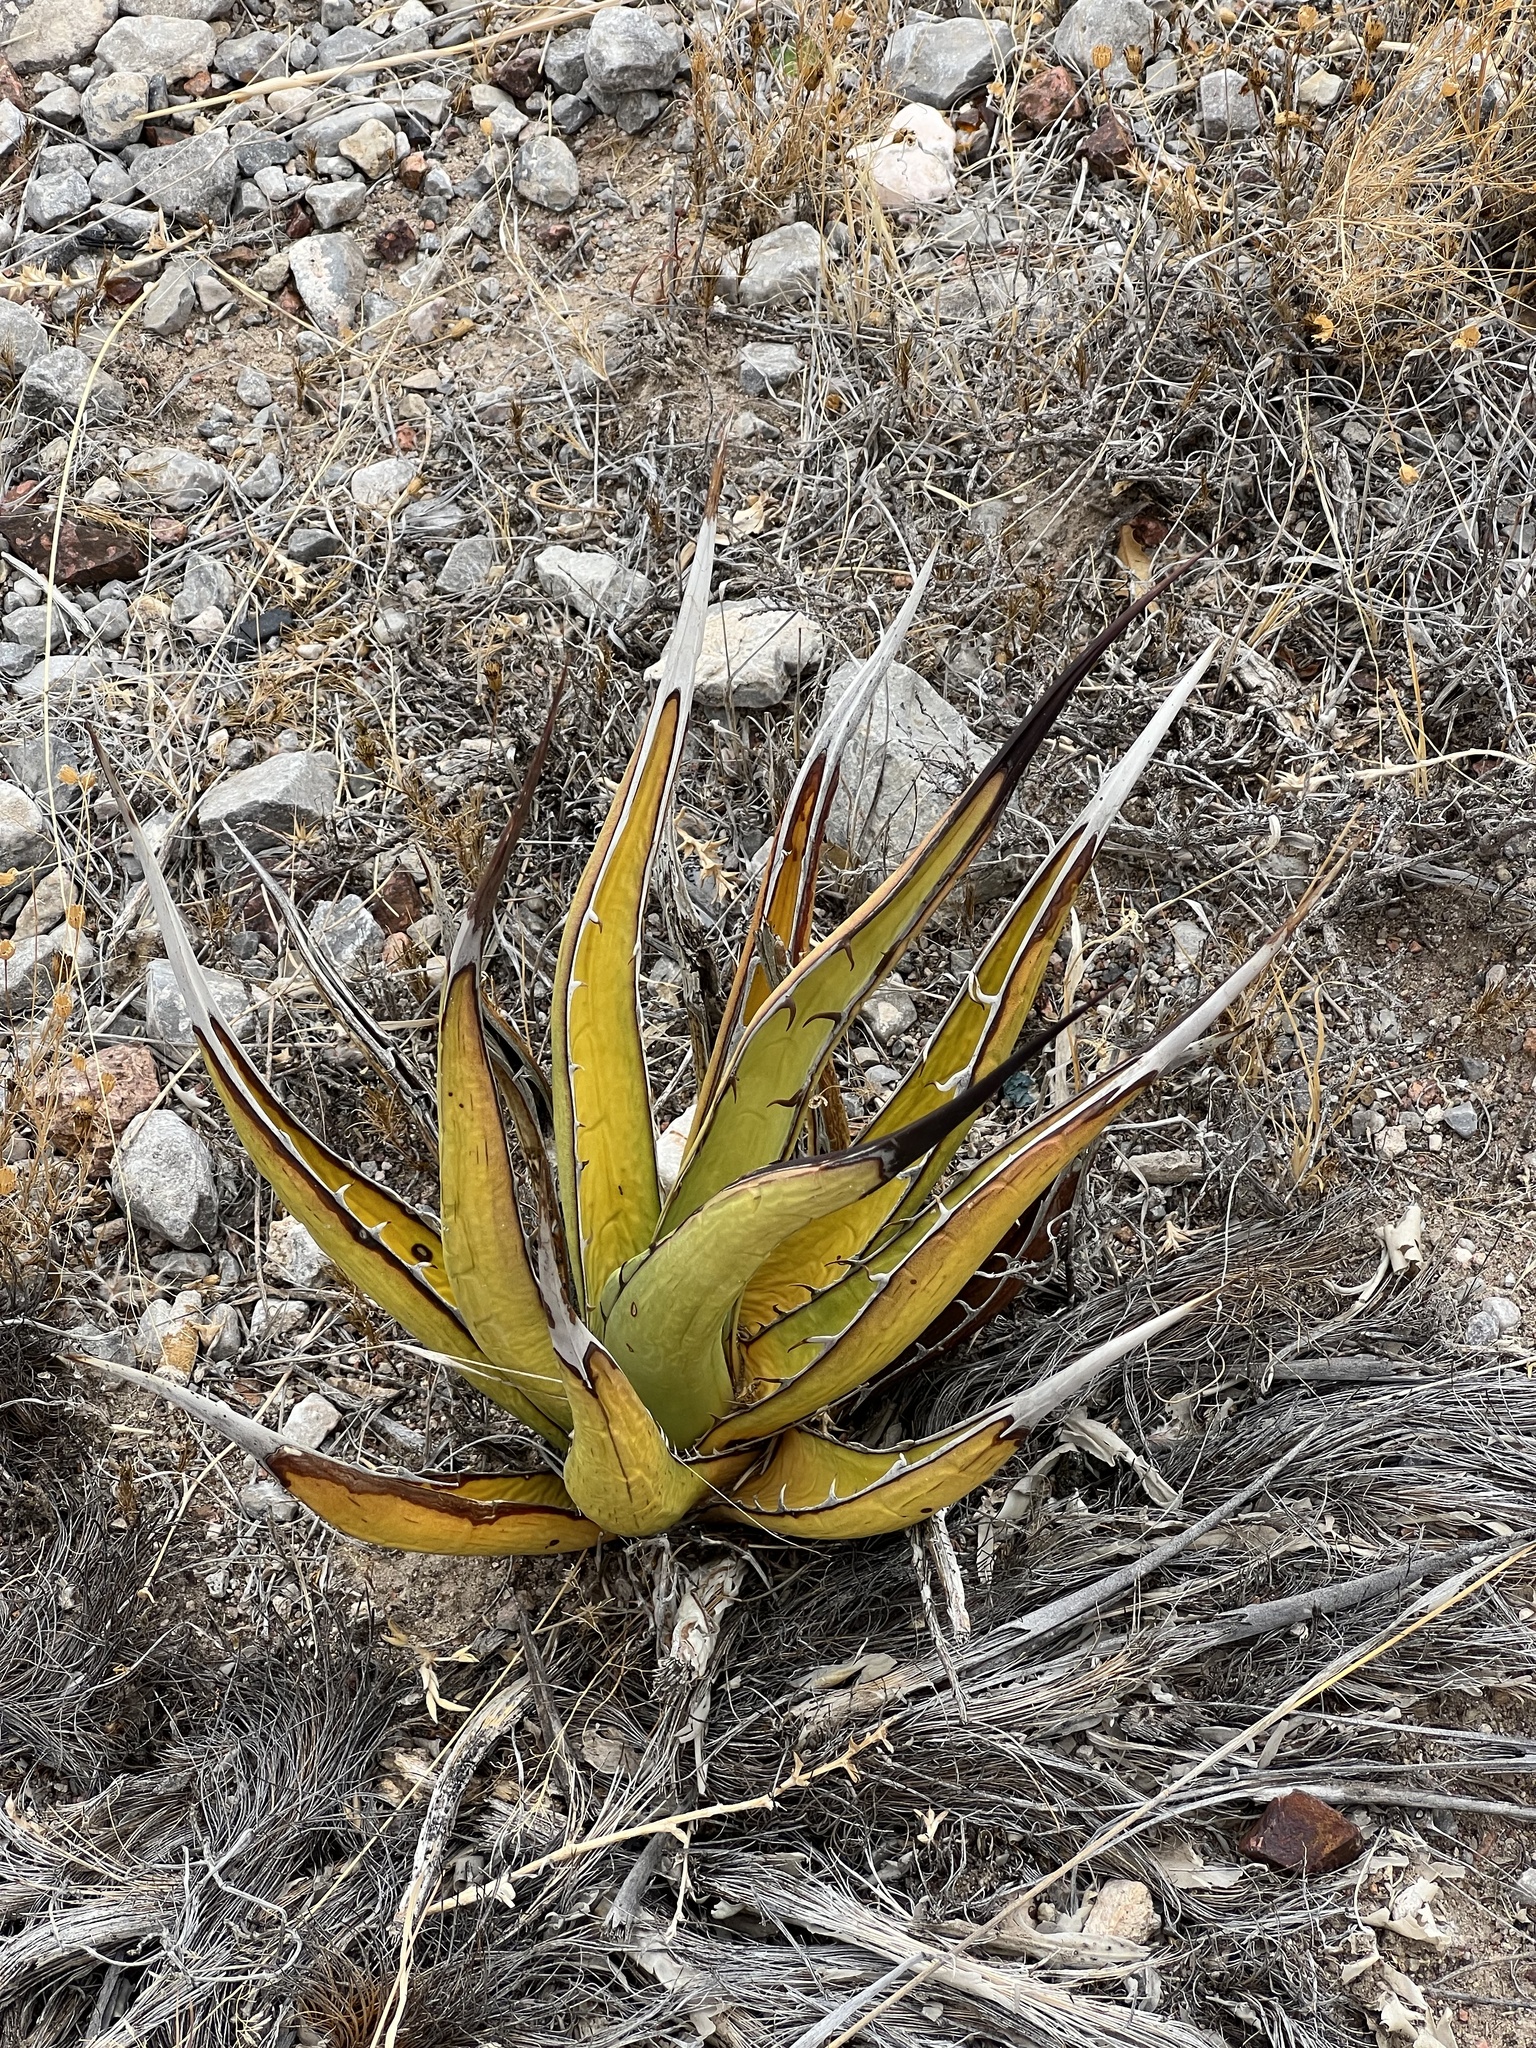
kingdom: Plantae
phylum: Tracheophyta
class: Liliopsida
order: Asparagales
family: Asparagaceae
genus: Agave
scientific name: Agave lechuguilla
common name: Lecheguilla agave
